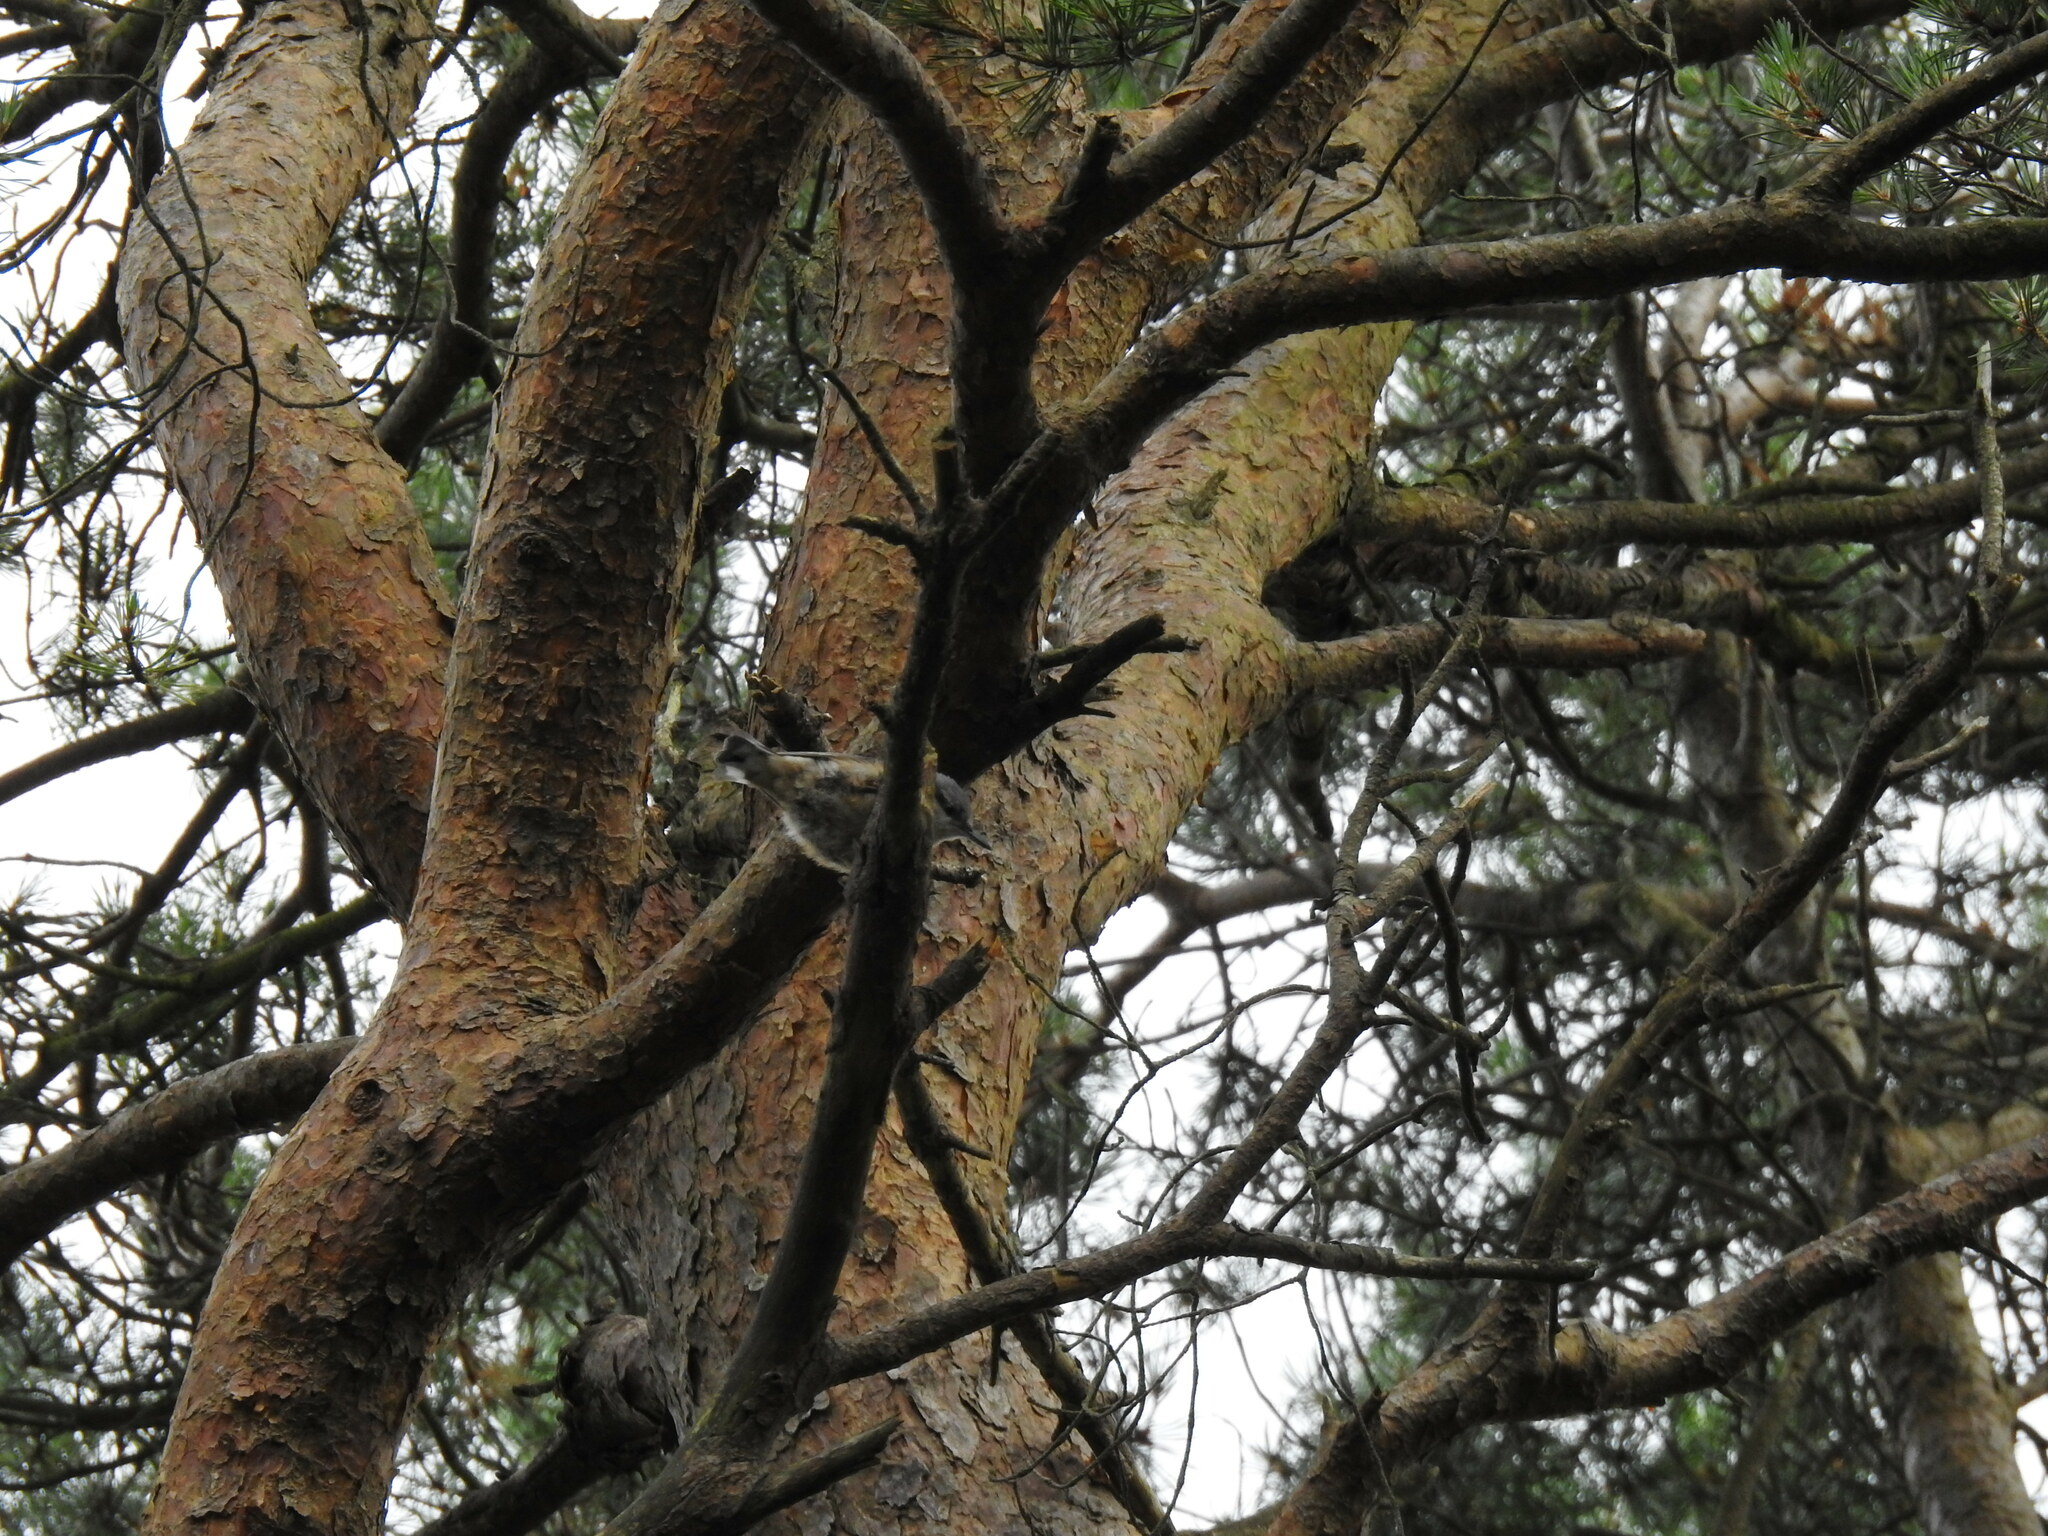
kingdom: Animalia
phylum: Chordata
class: Aves
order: Passeriformes
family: Sittidae
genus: Sitta
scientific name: Sitta europaea
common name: Eurasian nuthatch
